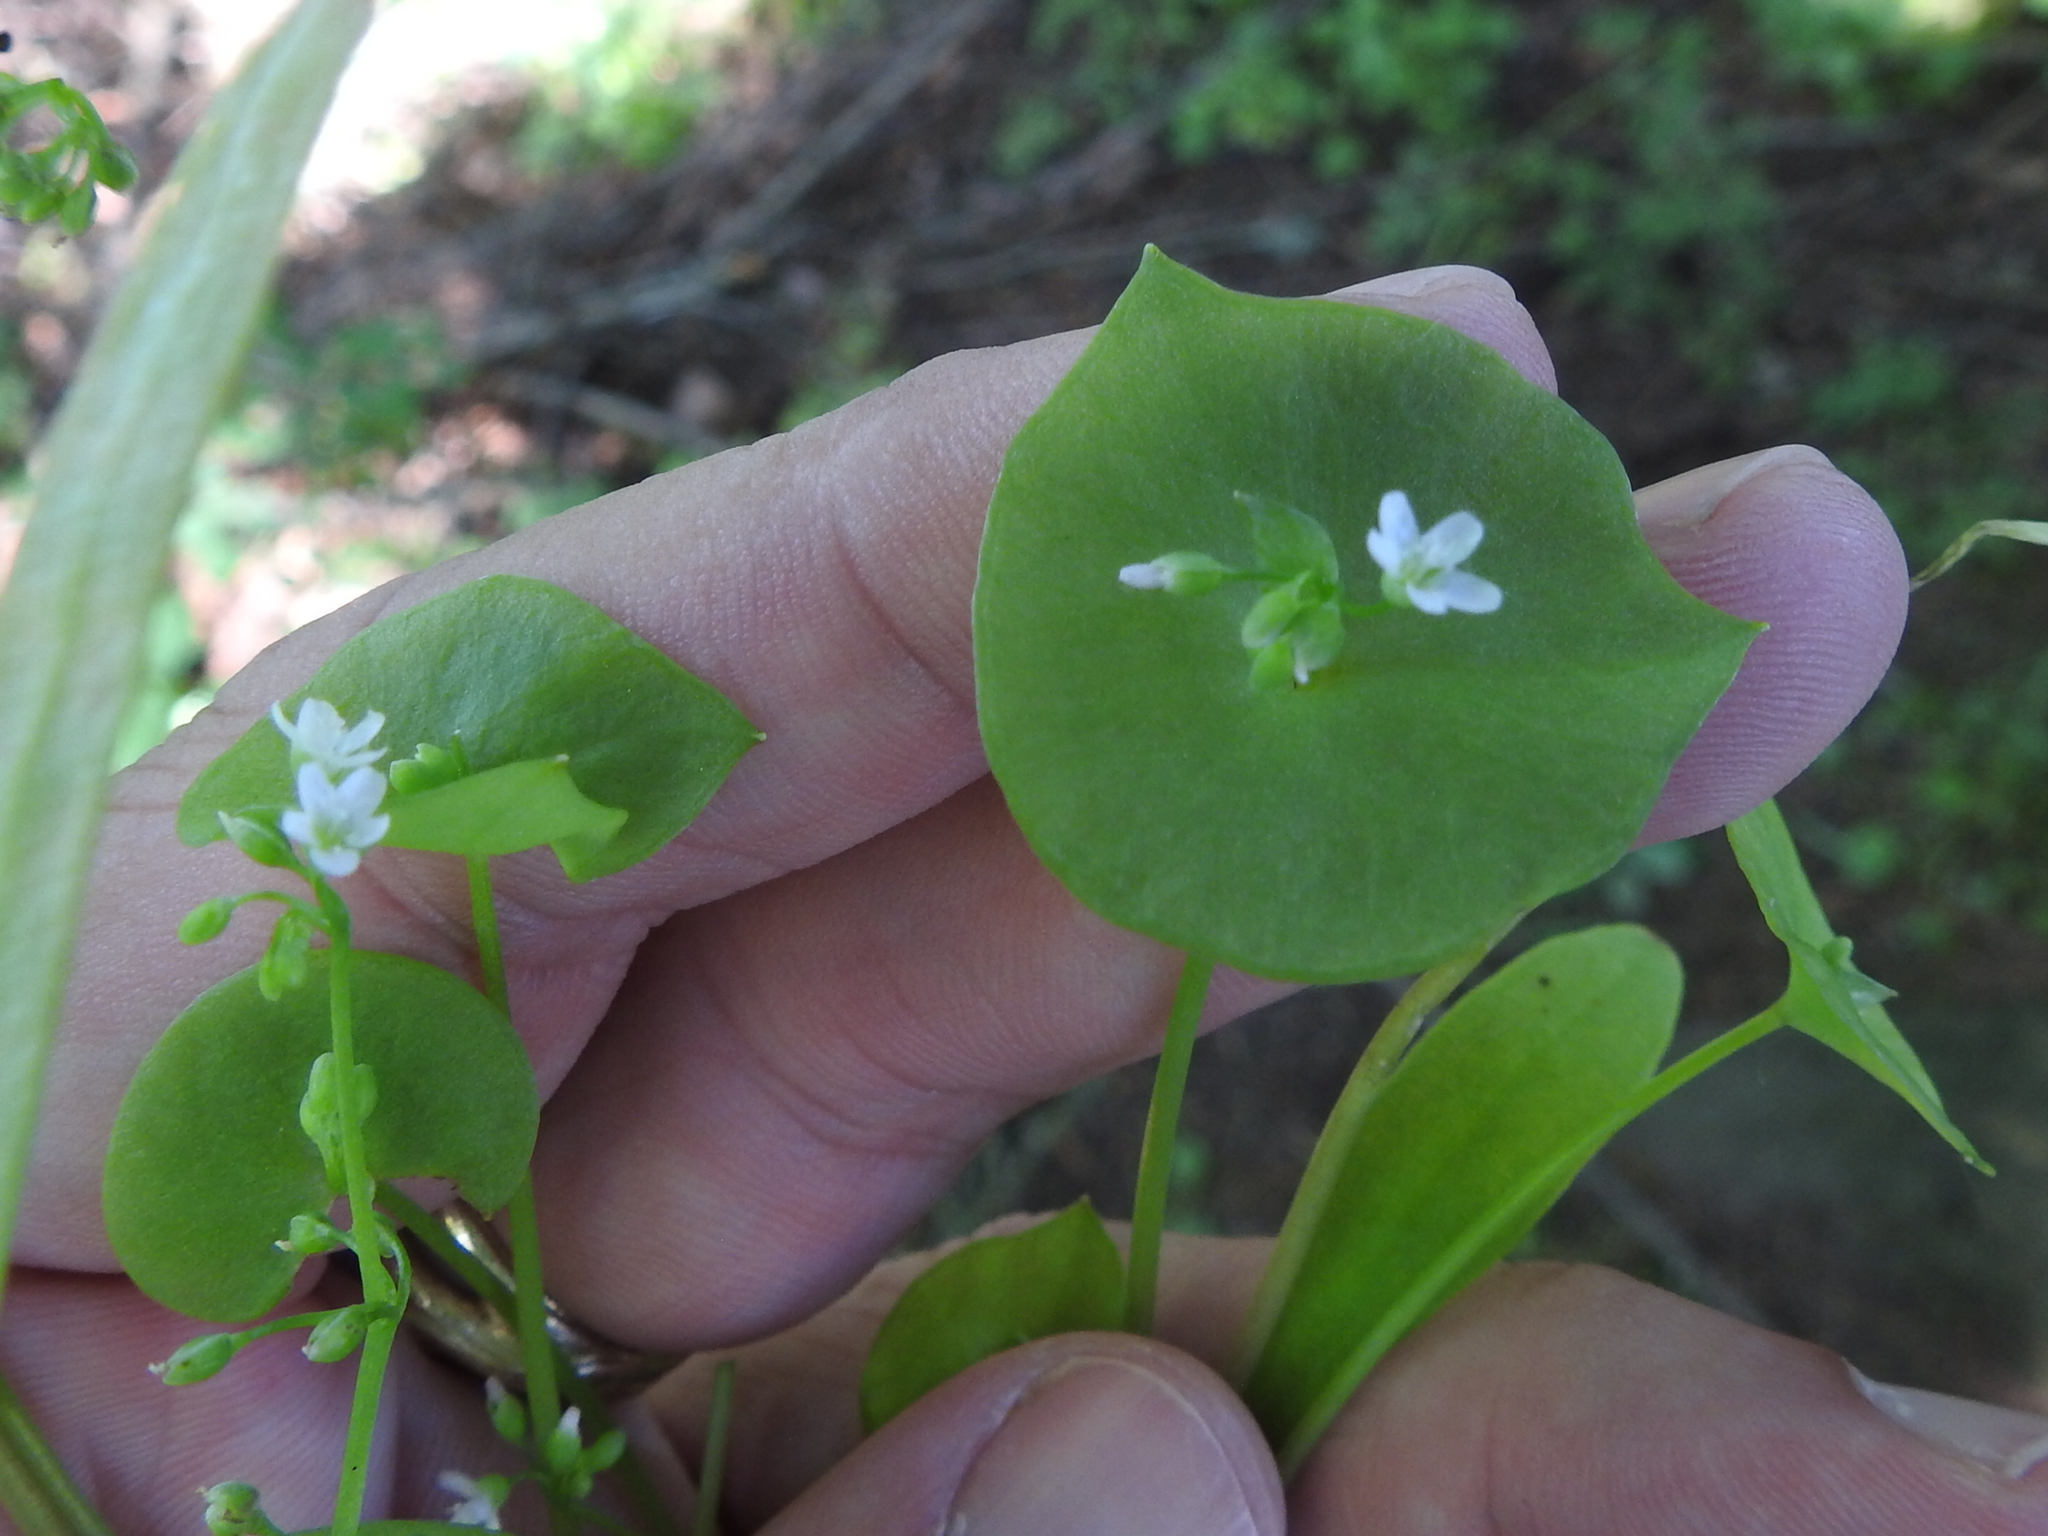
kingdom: Plantae
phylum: Tracheophyta
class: Magnoliopsida
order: Caryophyllales
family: Montiaceae
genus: Claytonia
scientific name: Claytonia perfoliata
